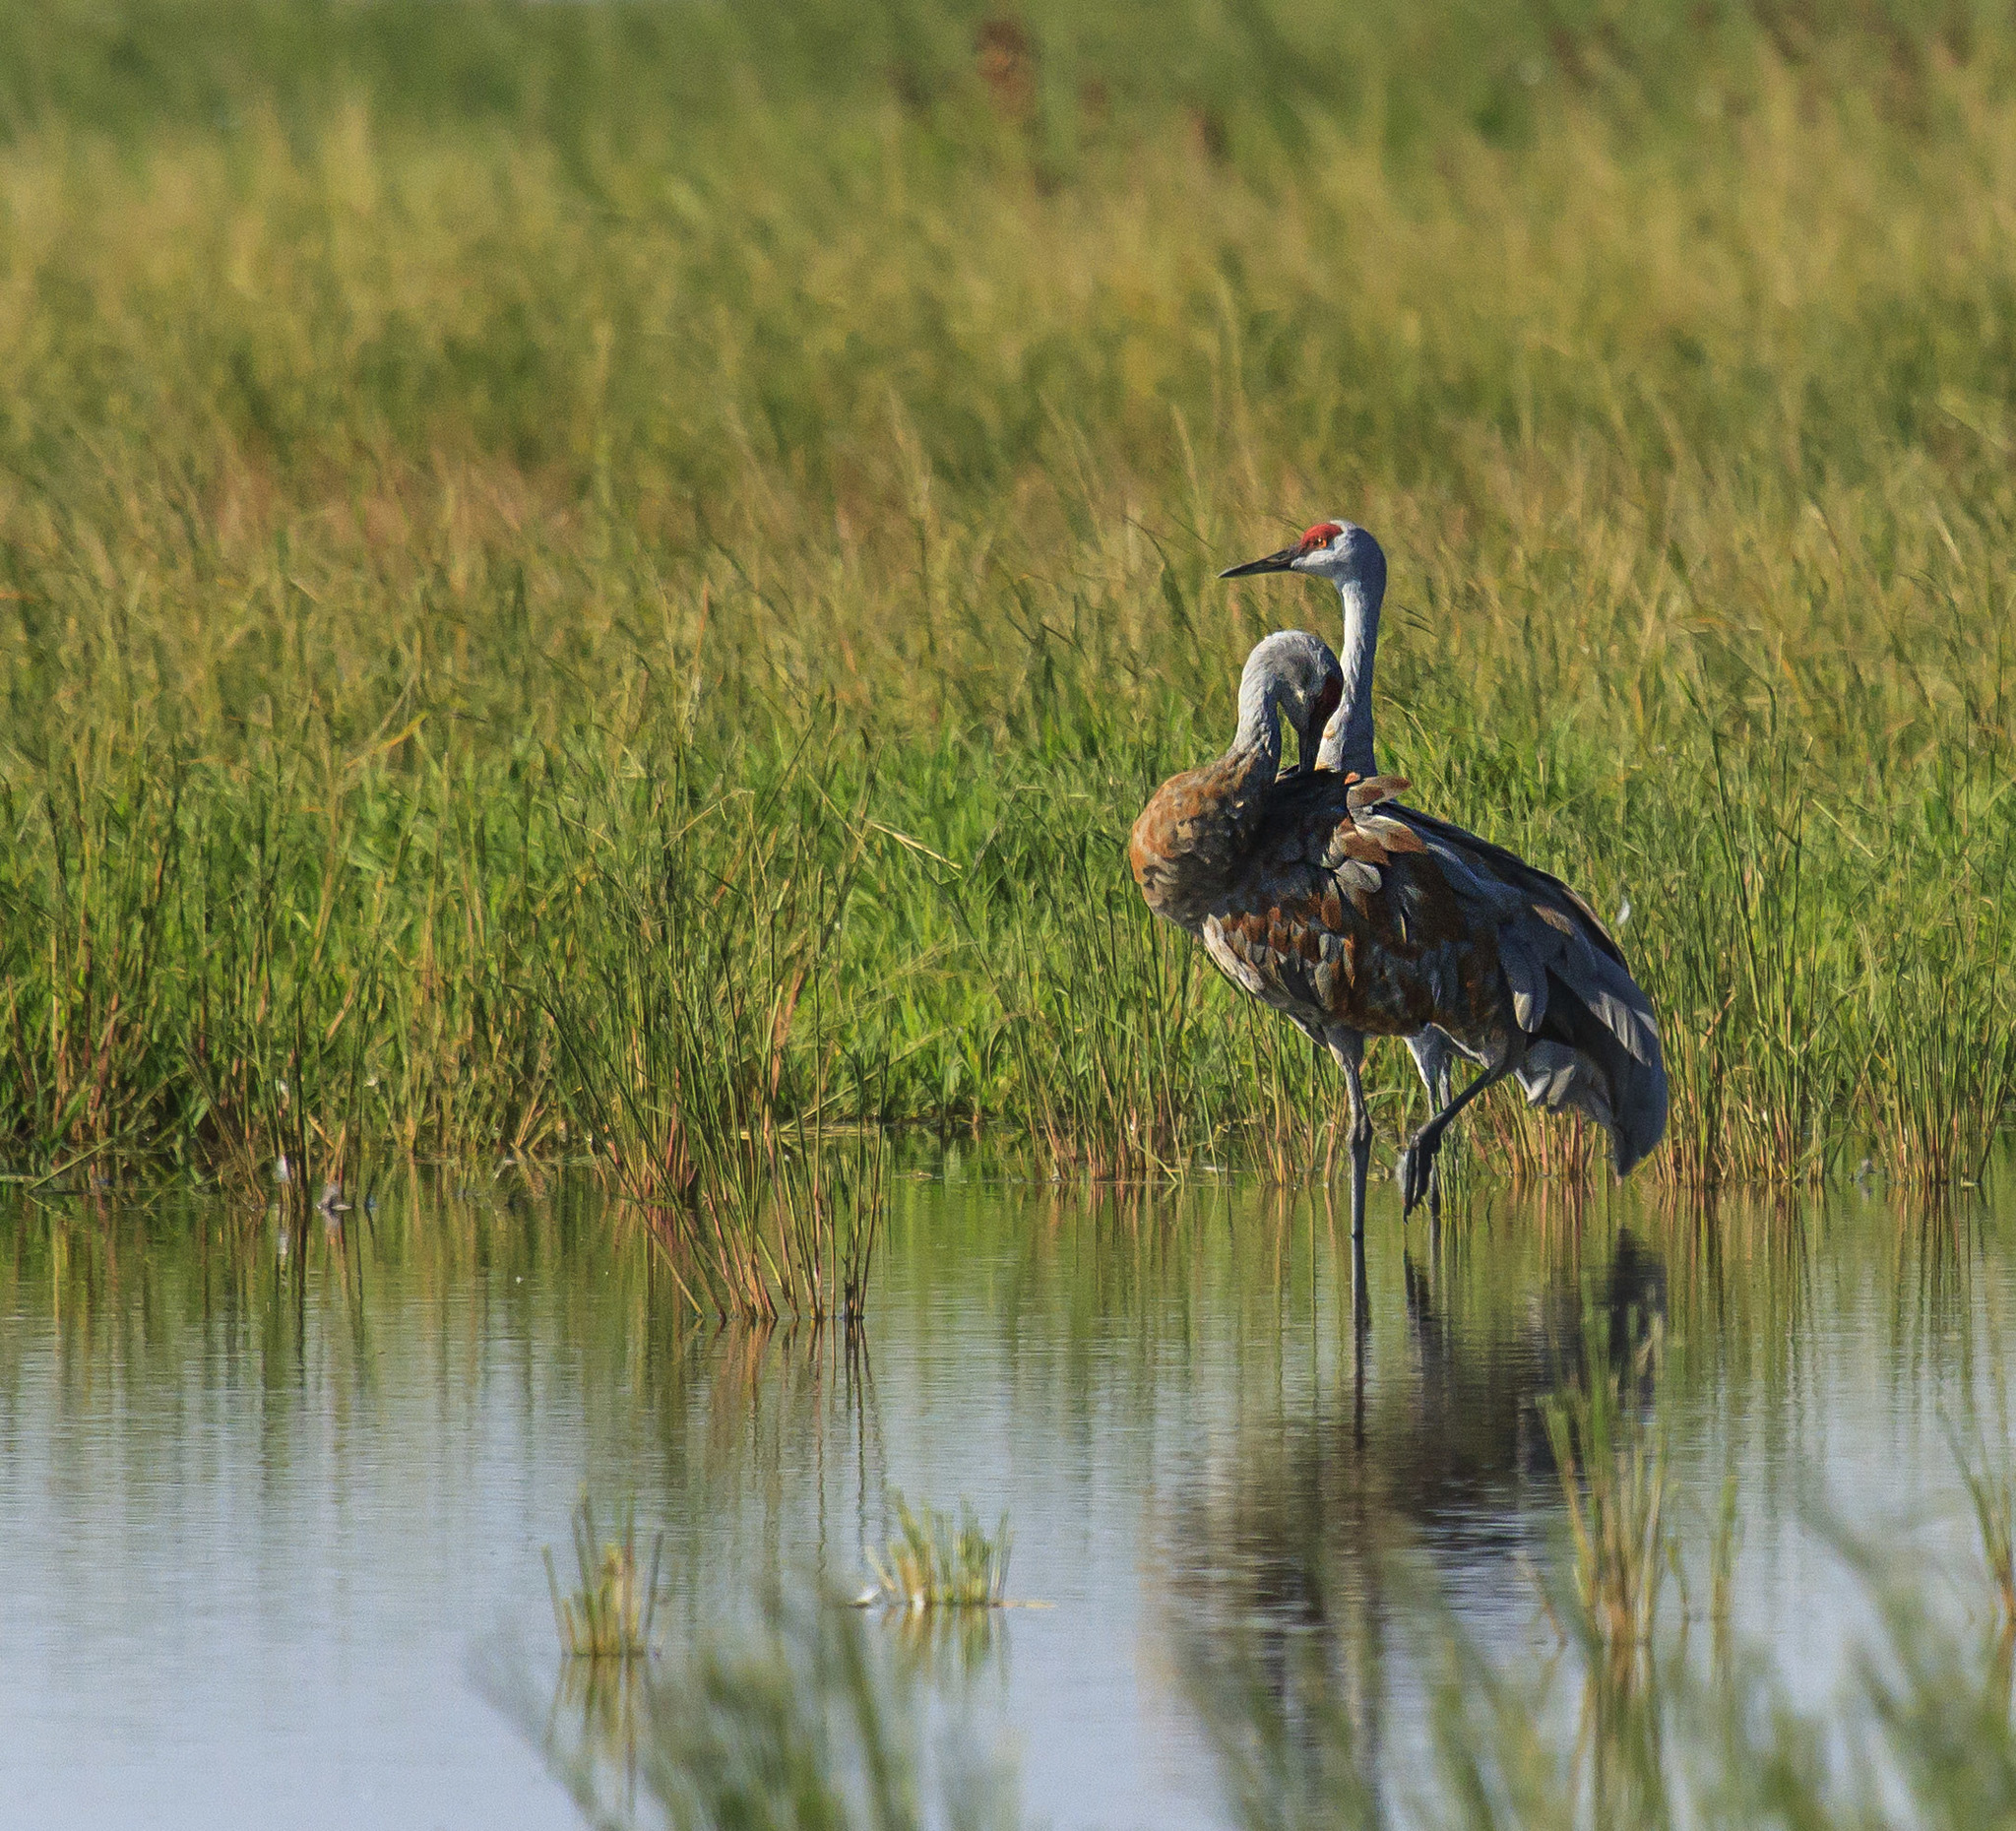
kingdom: Animalia
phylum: Chordata
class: Aves
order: Gruiformes
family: Gruidae
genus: Grus
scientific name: Grus canadensis
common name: Sandhill crane
